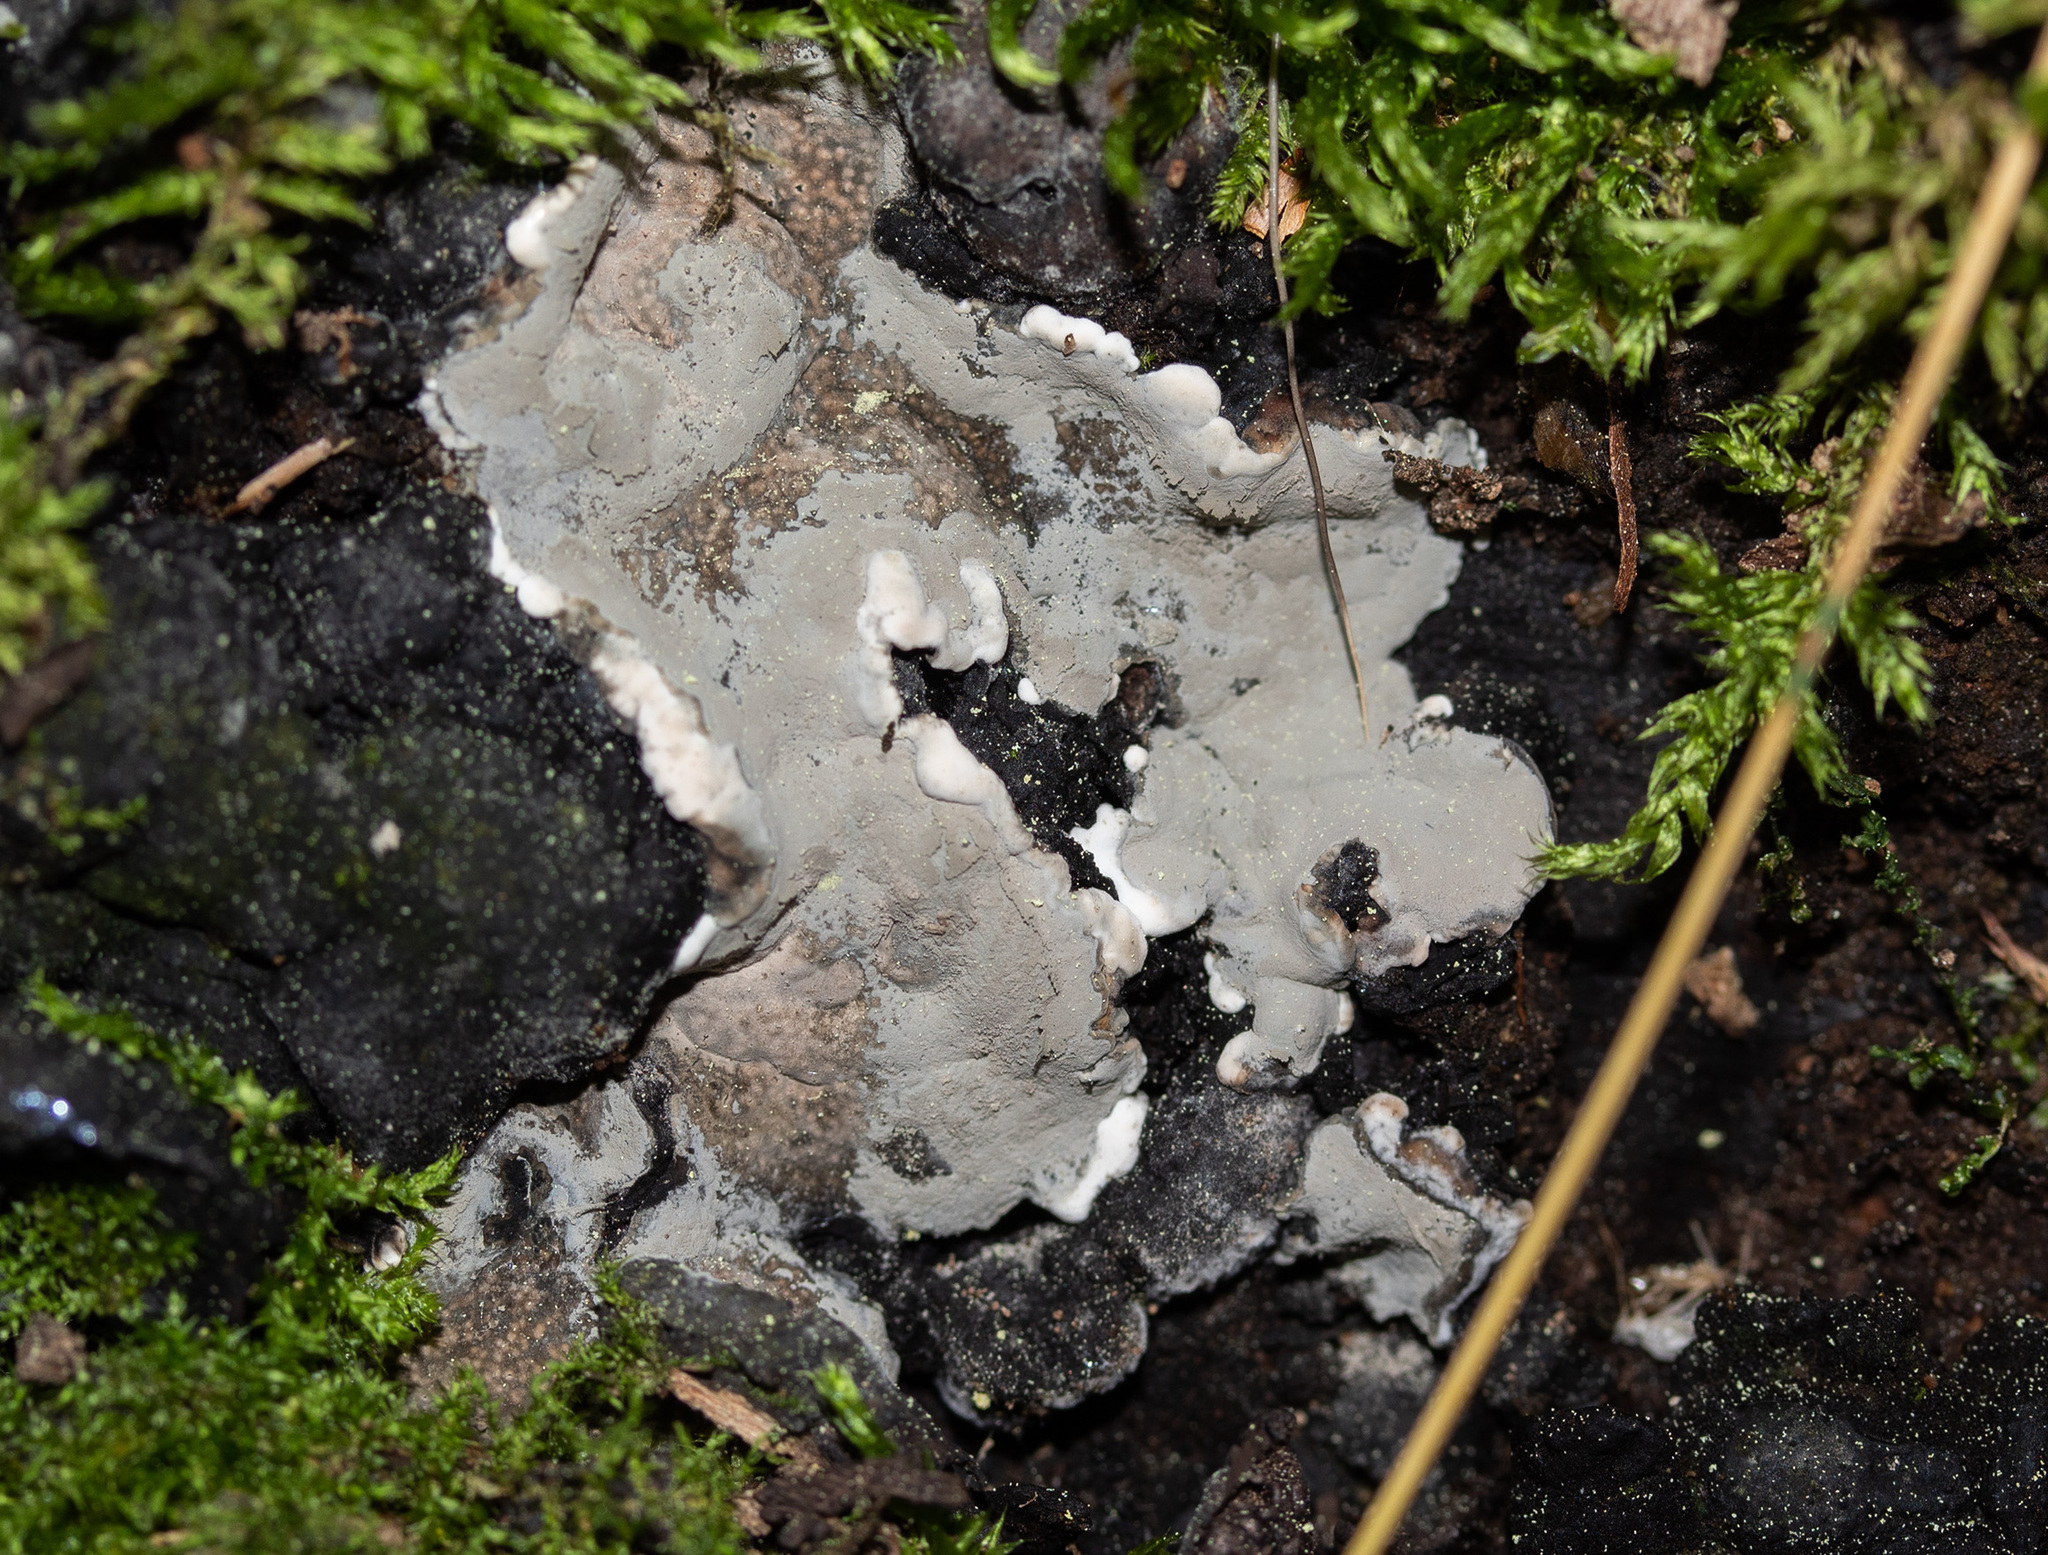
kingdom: Fungi
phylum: Ascomycota
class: Sordariomycetes
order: Xylariales
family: Xylariaceae
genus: Kretzschmaria
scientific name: Kretzschmaria deusta
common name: Brittle cinder
